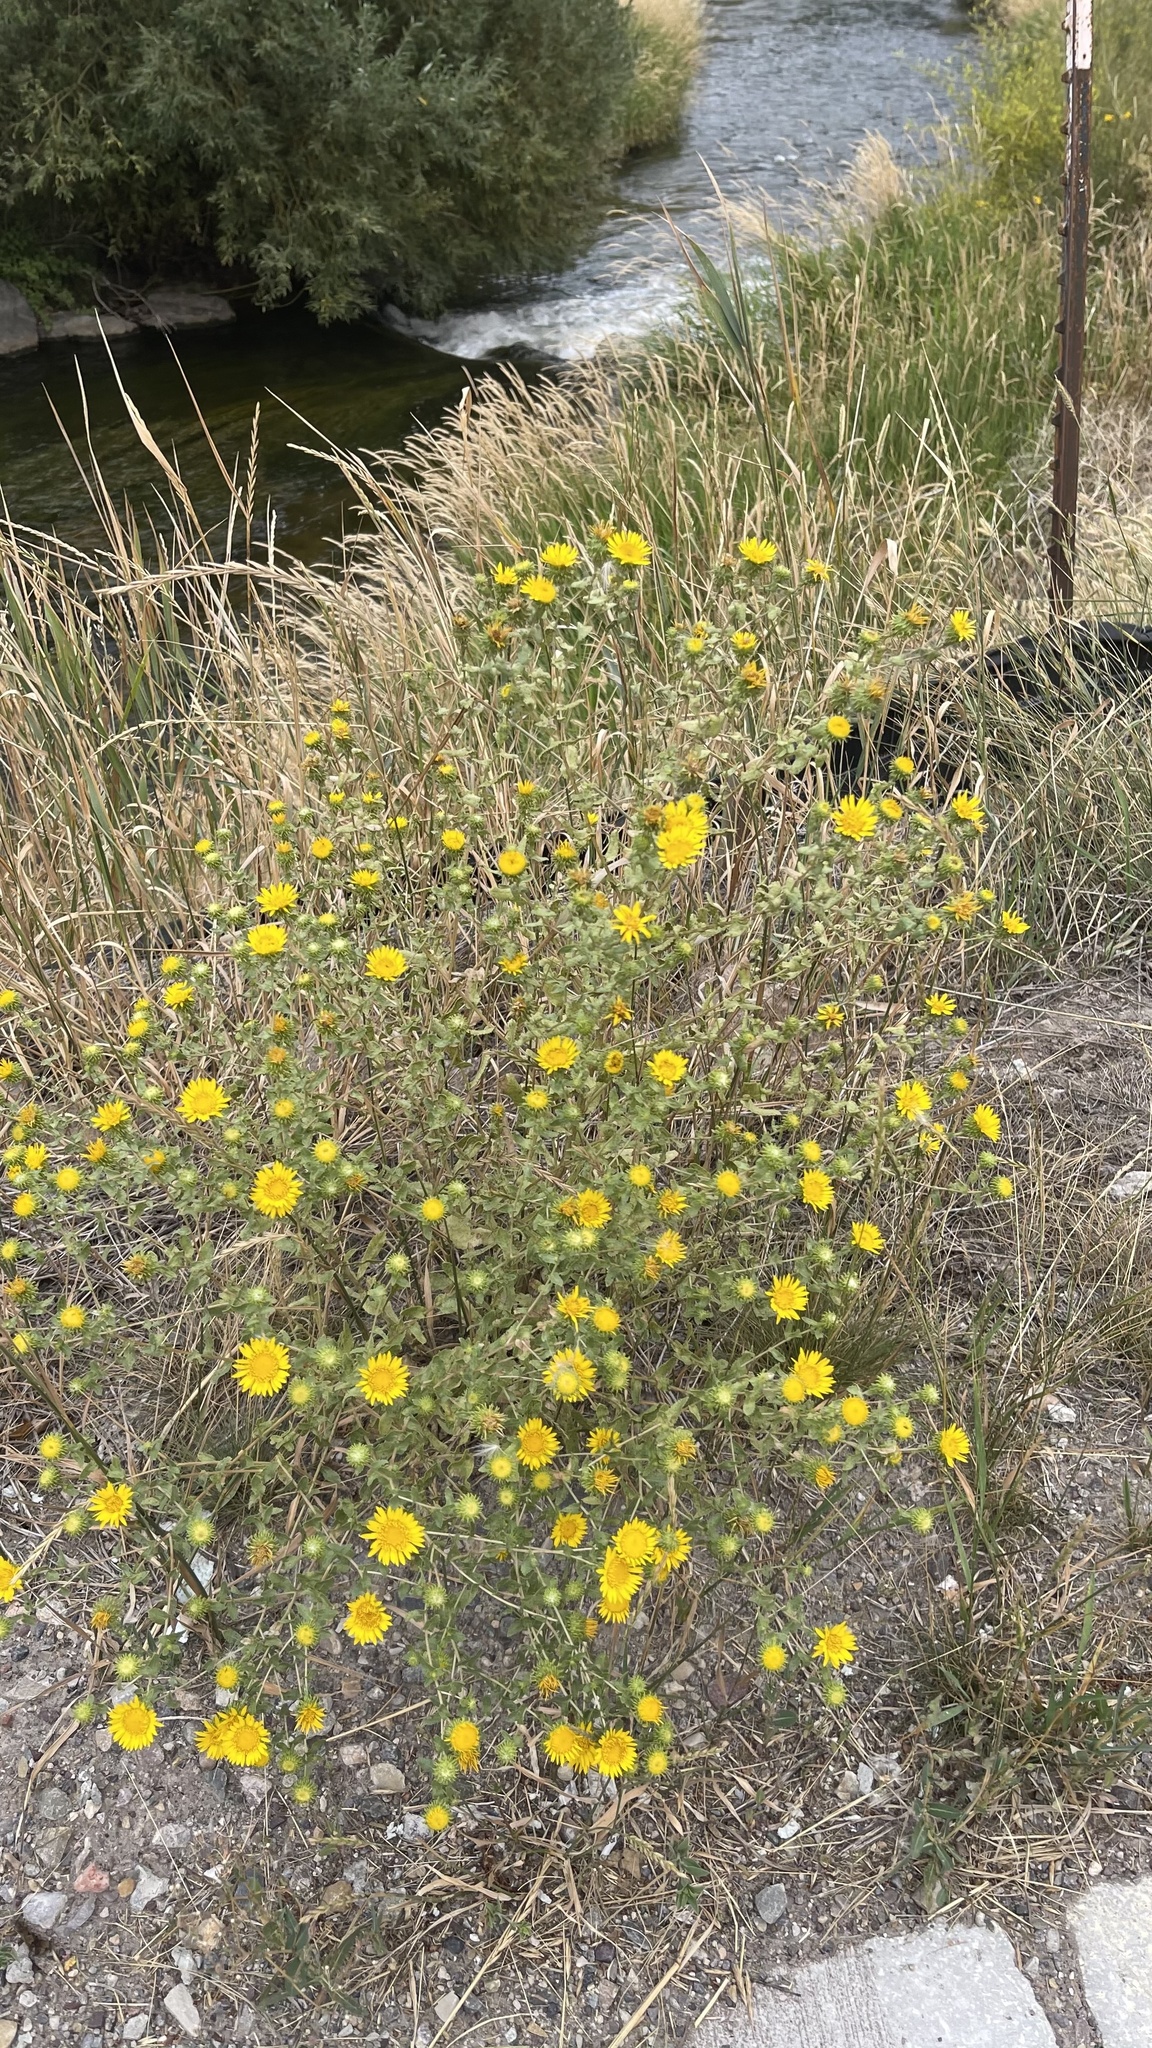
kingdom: Plantae
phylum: Tracheophyta
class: Magnoliopsida
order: Asterales
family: Asteraceae
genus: Grindelia
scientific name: Grindelia squarrosa
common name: Curly-cup gumweed
